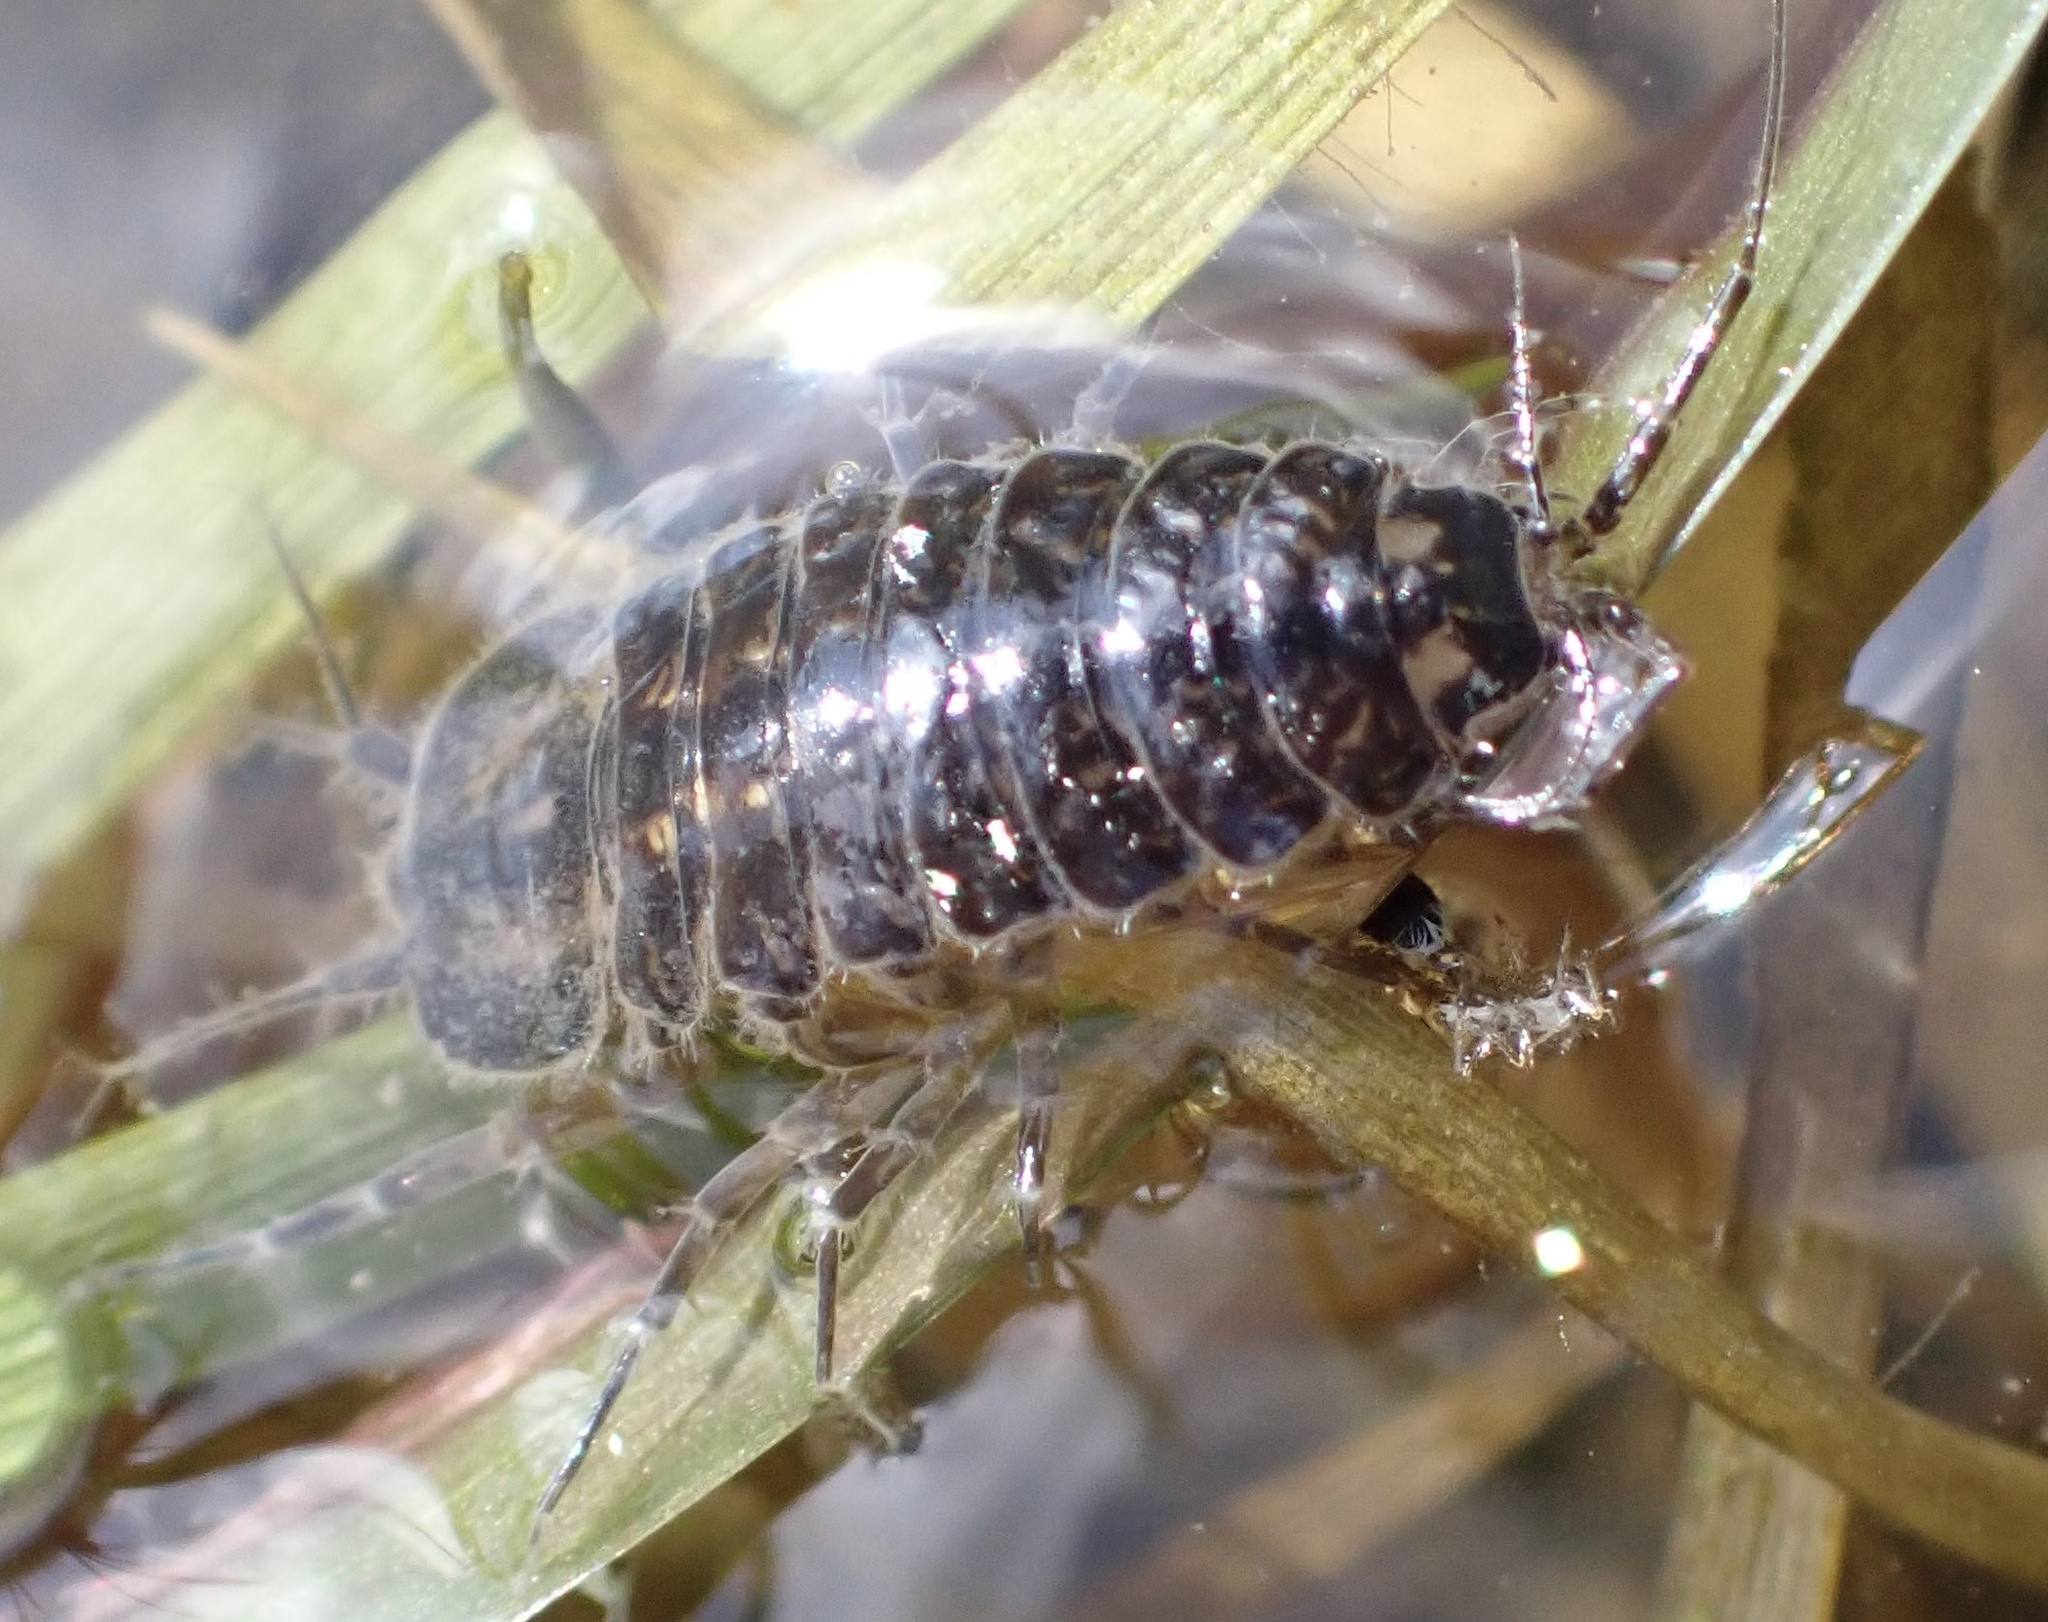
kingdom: Animalia
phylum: Arthropoda
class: Malacostraca
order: Isopoda
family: Asellidae
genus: Asellus
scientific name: Asellus aquaticus
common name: Water hog lice/slaters
